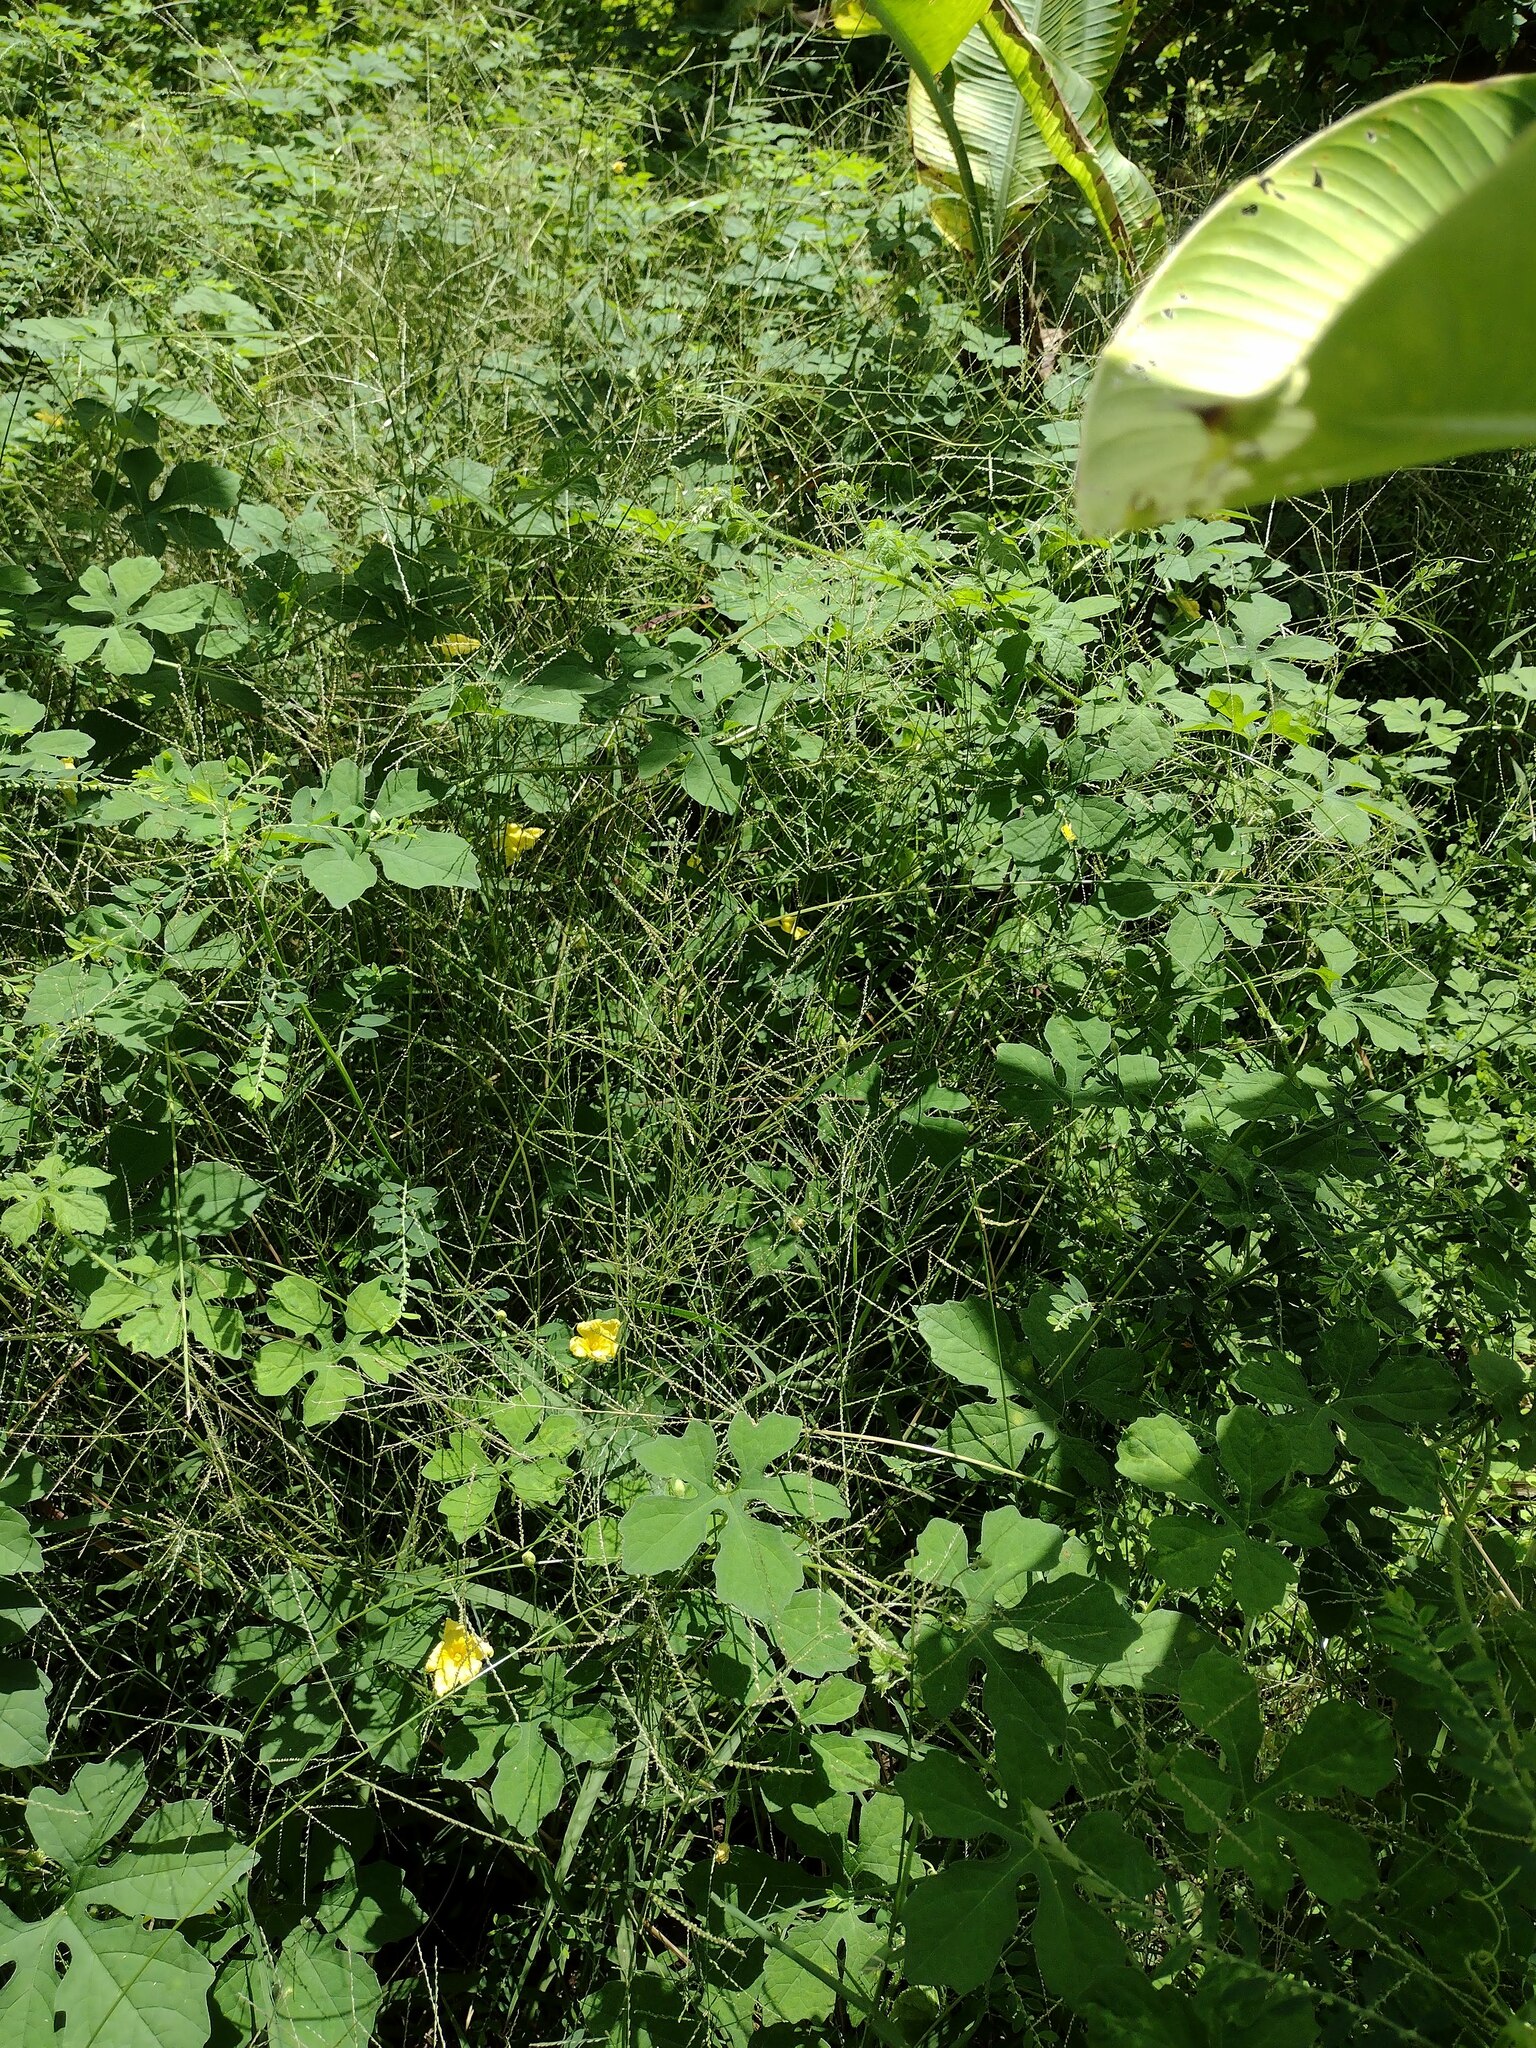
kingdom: Plantae
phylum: Tracheophyta
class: Magnoliopsida
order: Cucurbitales
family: Cucurbitaceae
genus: Momordica
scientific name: Momordica charantia
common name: Balsampear
